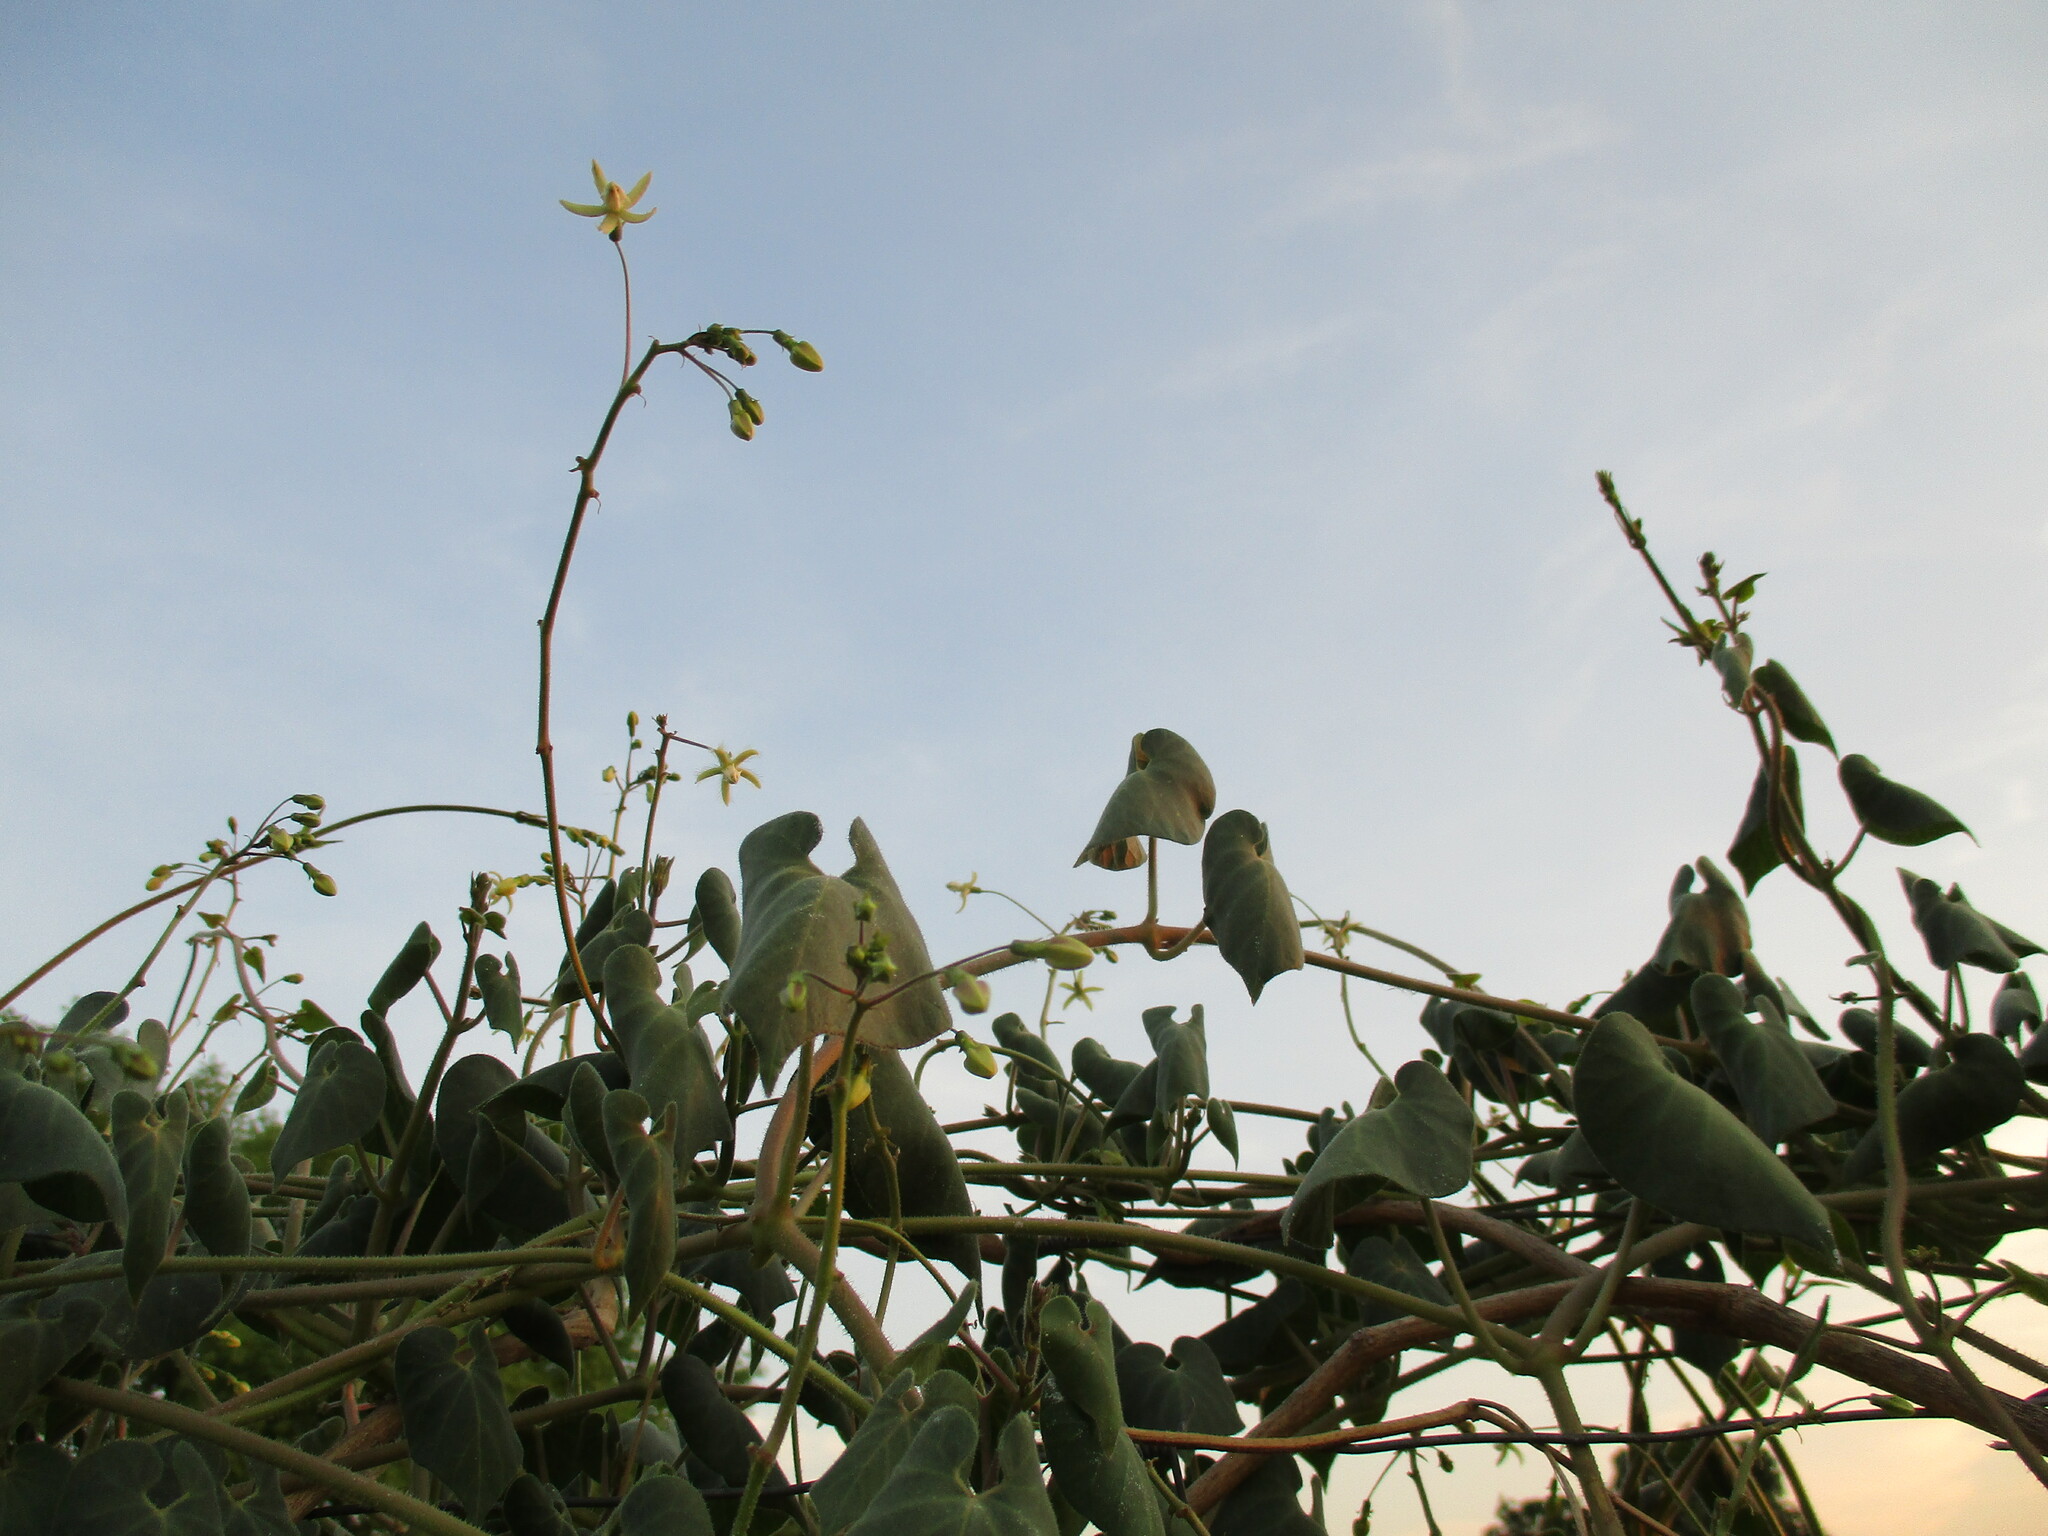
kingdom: Plantae
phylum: Tracheophyta
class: Magnoliopsida
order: Gentianales
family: Apocynaceae
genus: Pergularia
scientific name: Pergularia daemia
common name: Trellis-vine
